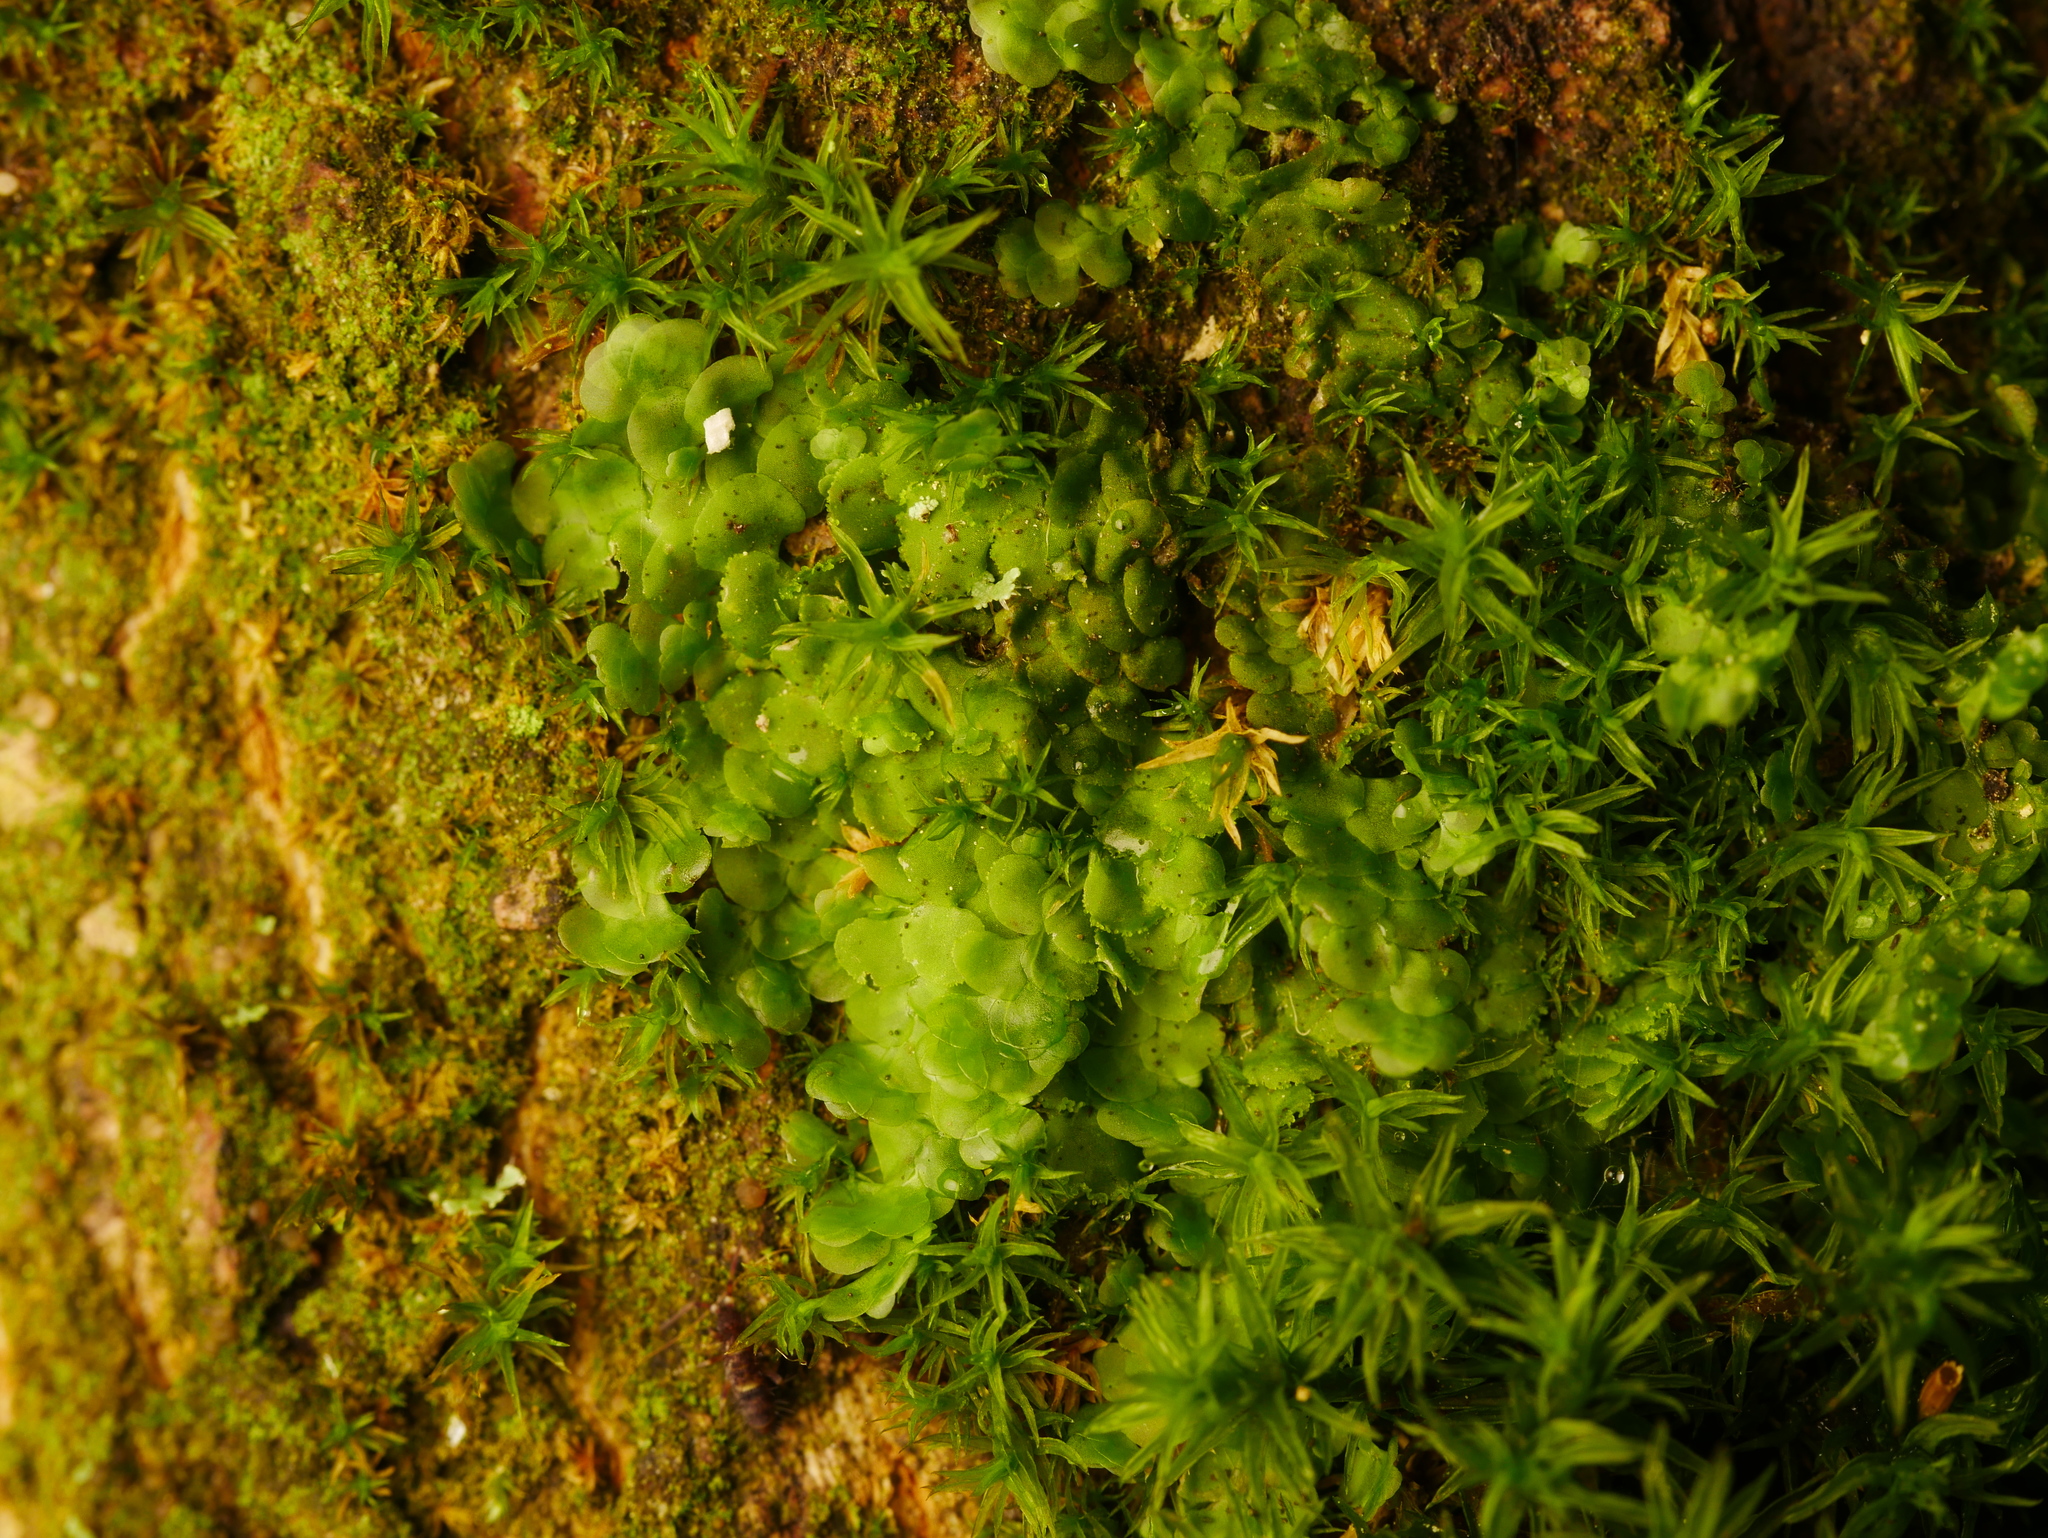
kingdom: Plantae
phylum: Marchantiophyta
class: Jungermanniopsida
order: Porellales
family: Radulaceae
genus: Radula
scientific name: Radula complanata
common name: Flat-leaved scalewort
